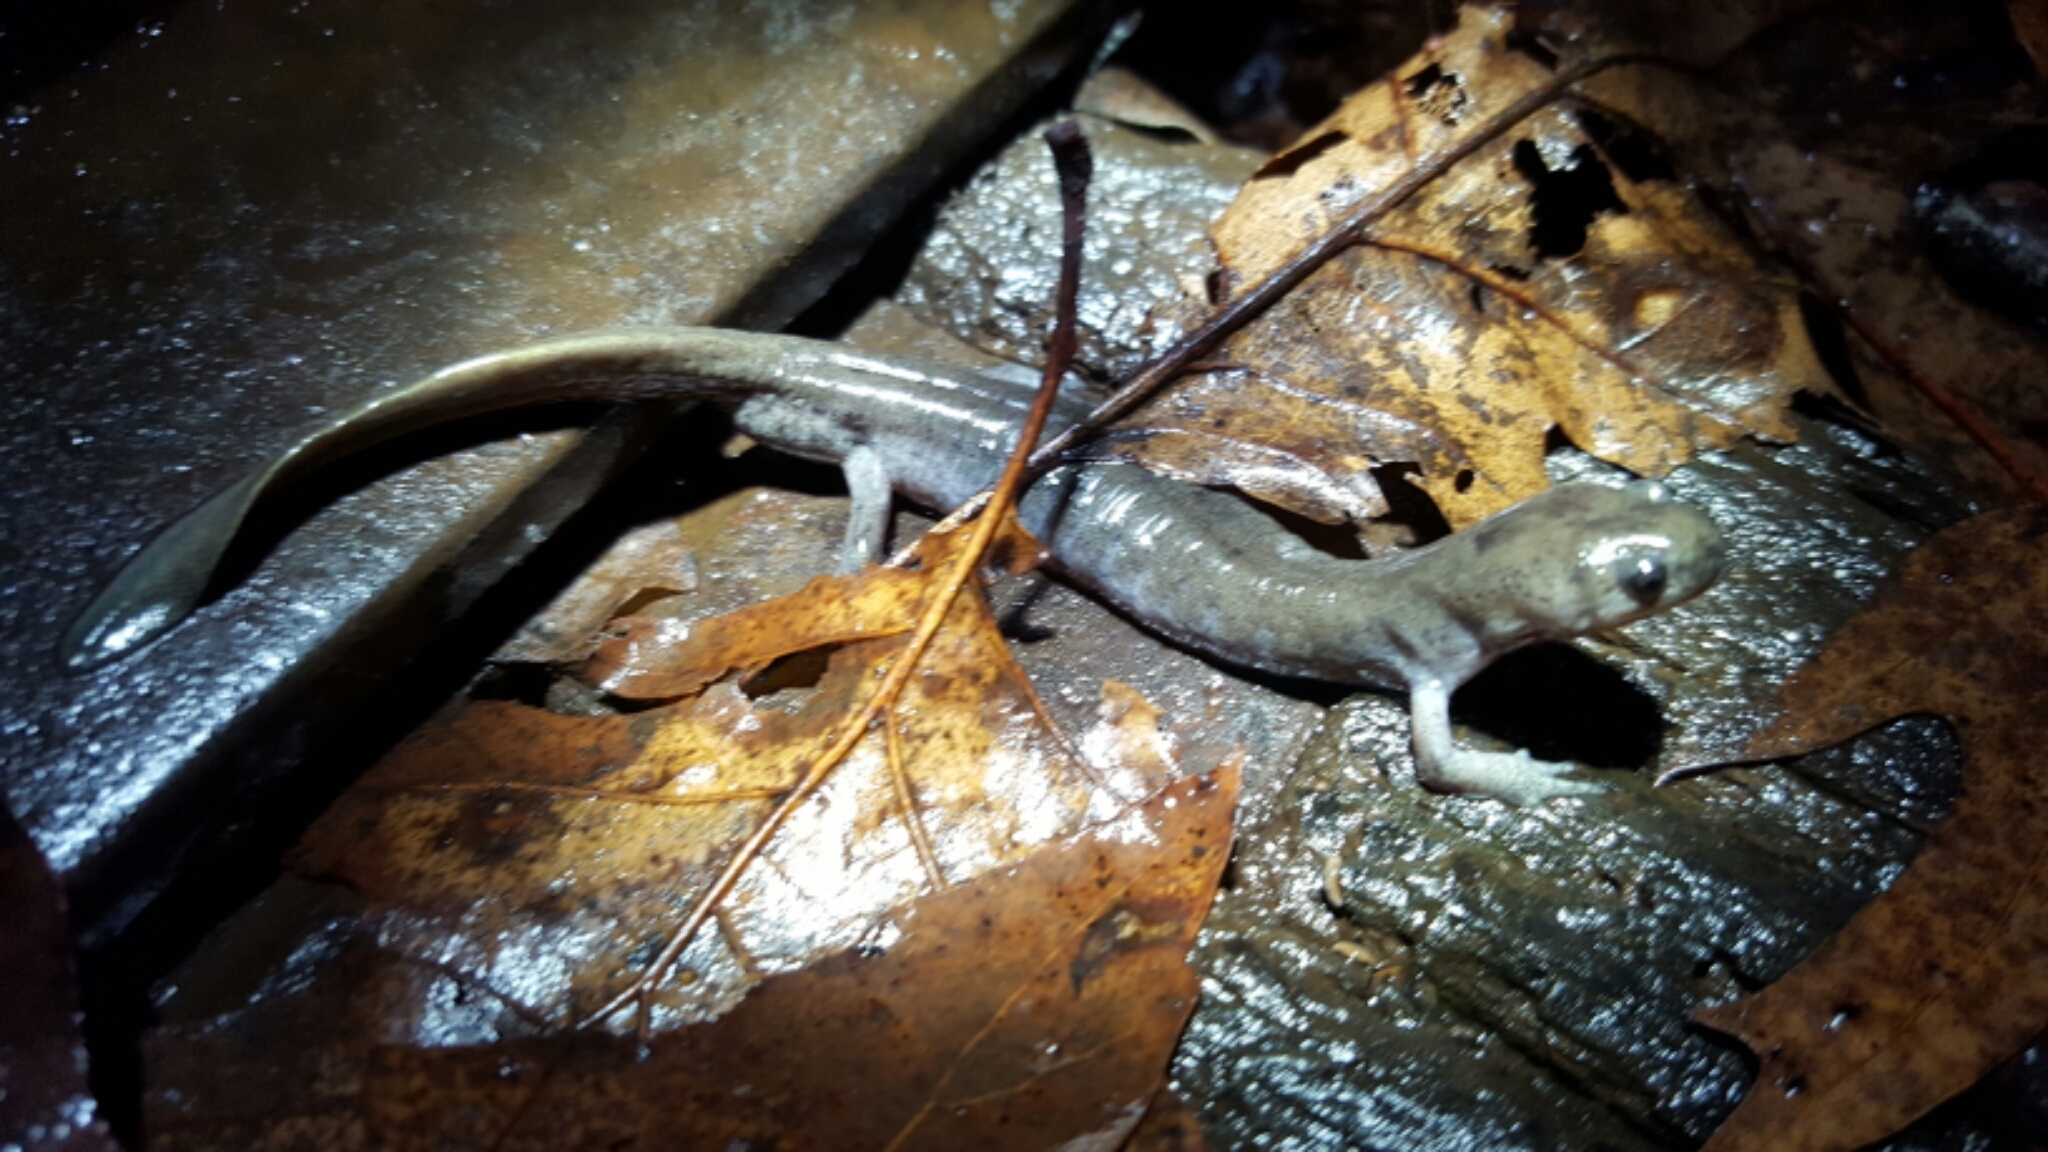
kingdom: Animalia
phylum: Chordata
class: Amphibia
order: Caudata
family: Ambystomatidae
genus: Ambystoma
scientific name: Ambystoma texanum
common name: Small-mouth salamander
